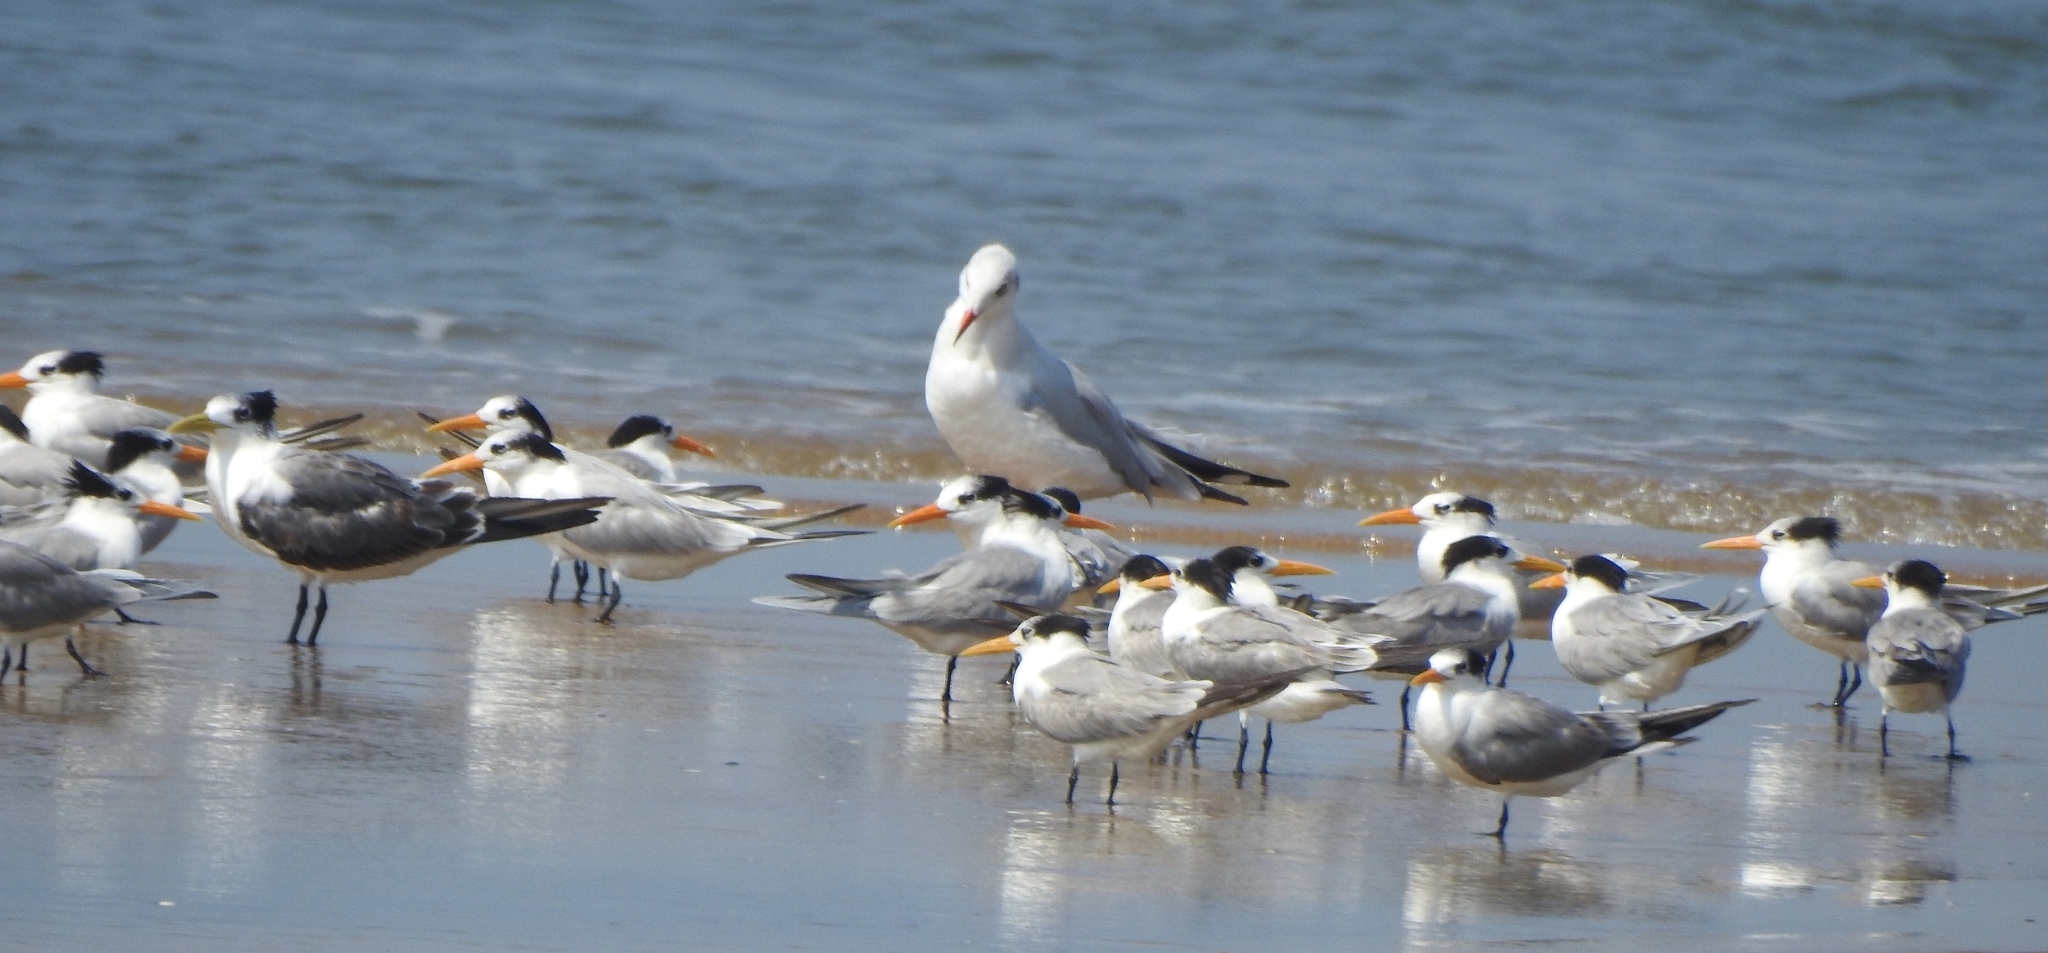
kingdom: Animalia
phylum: Chordata
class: Aves
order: Charadriiformes
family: Laridae
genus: Thalasseus
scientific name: Thalasseus bengalensis
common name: Lesser crested tern
